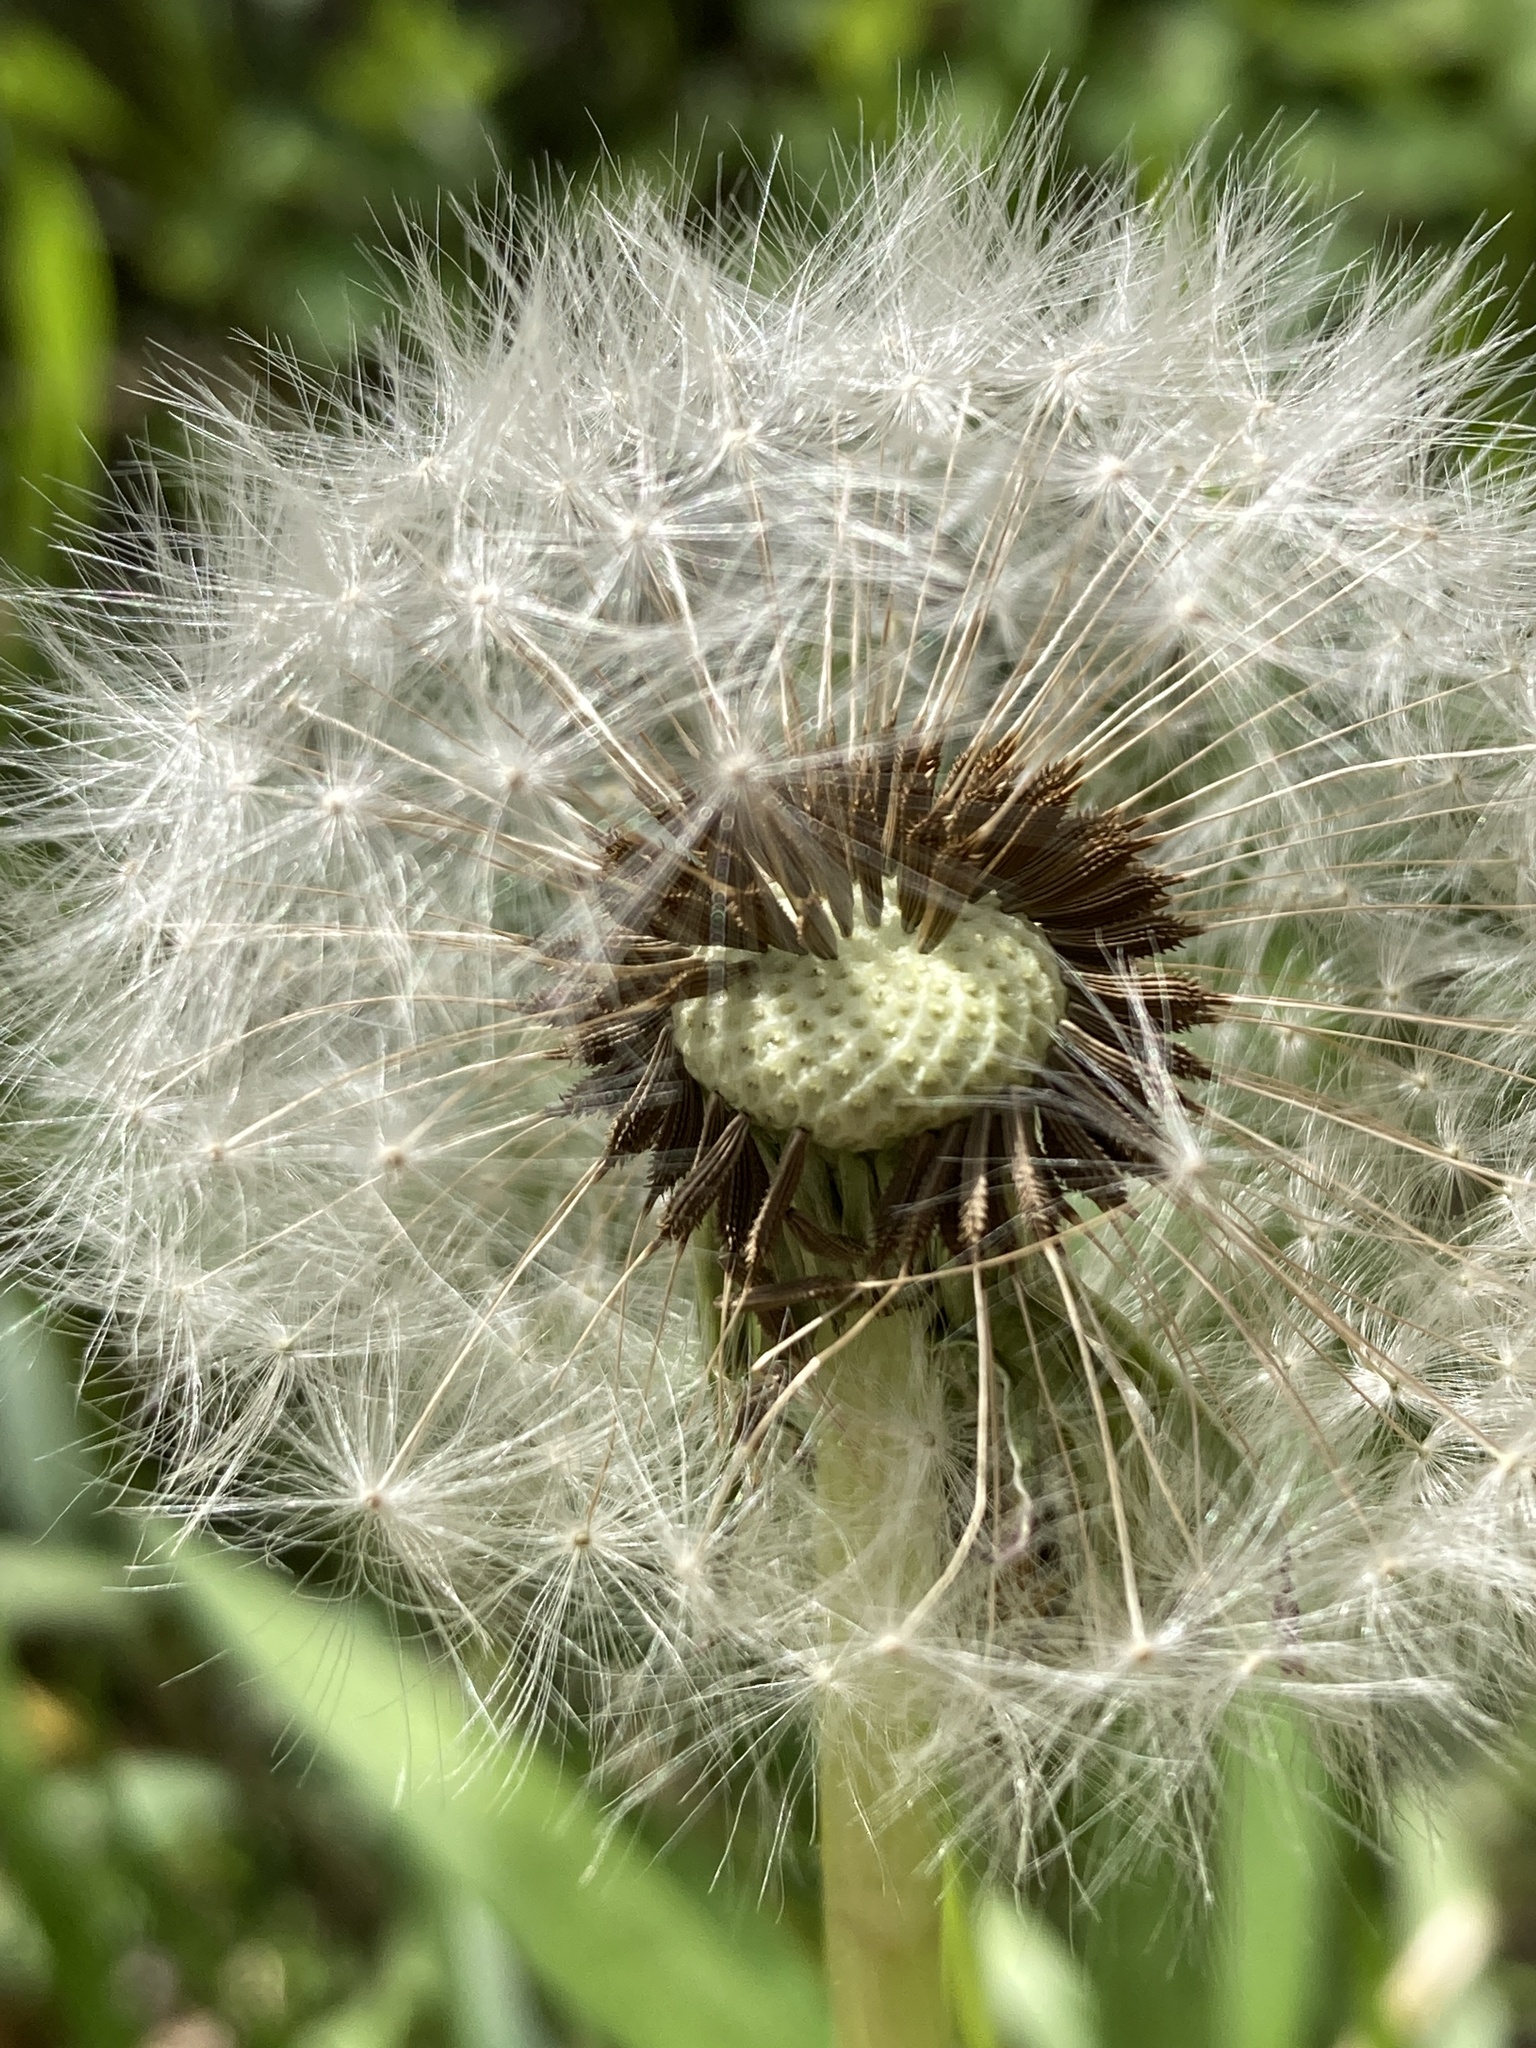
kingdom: Plantae
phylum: Tracheophyta
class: Magnoliopsida
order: Asterales
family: Asteraceae
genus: Taraxacum
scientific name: Taraxacum officinale
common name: Common dandelion
